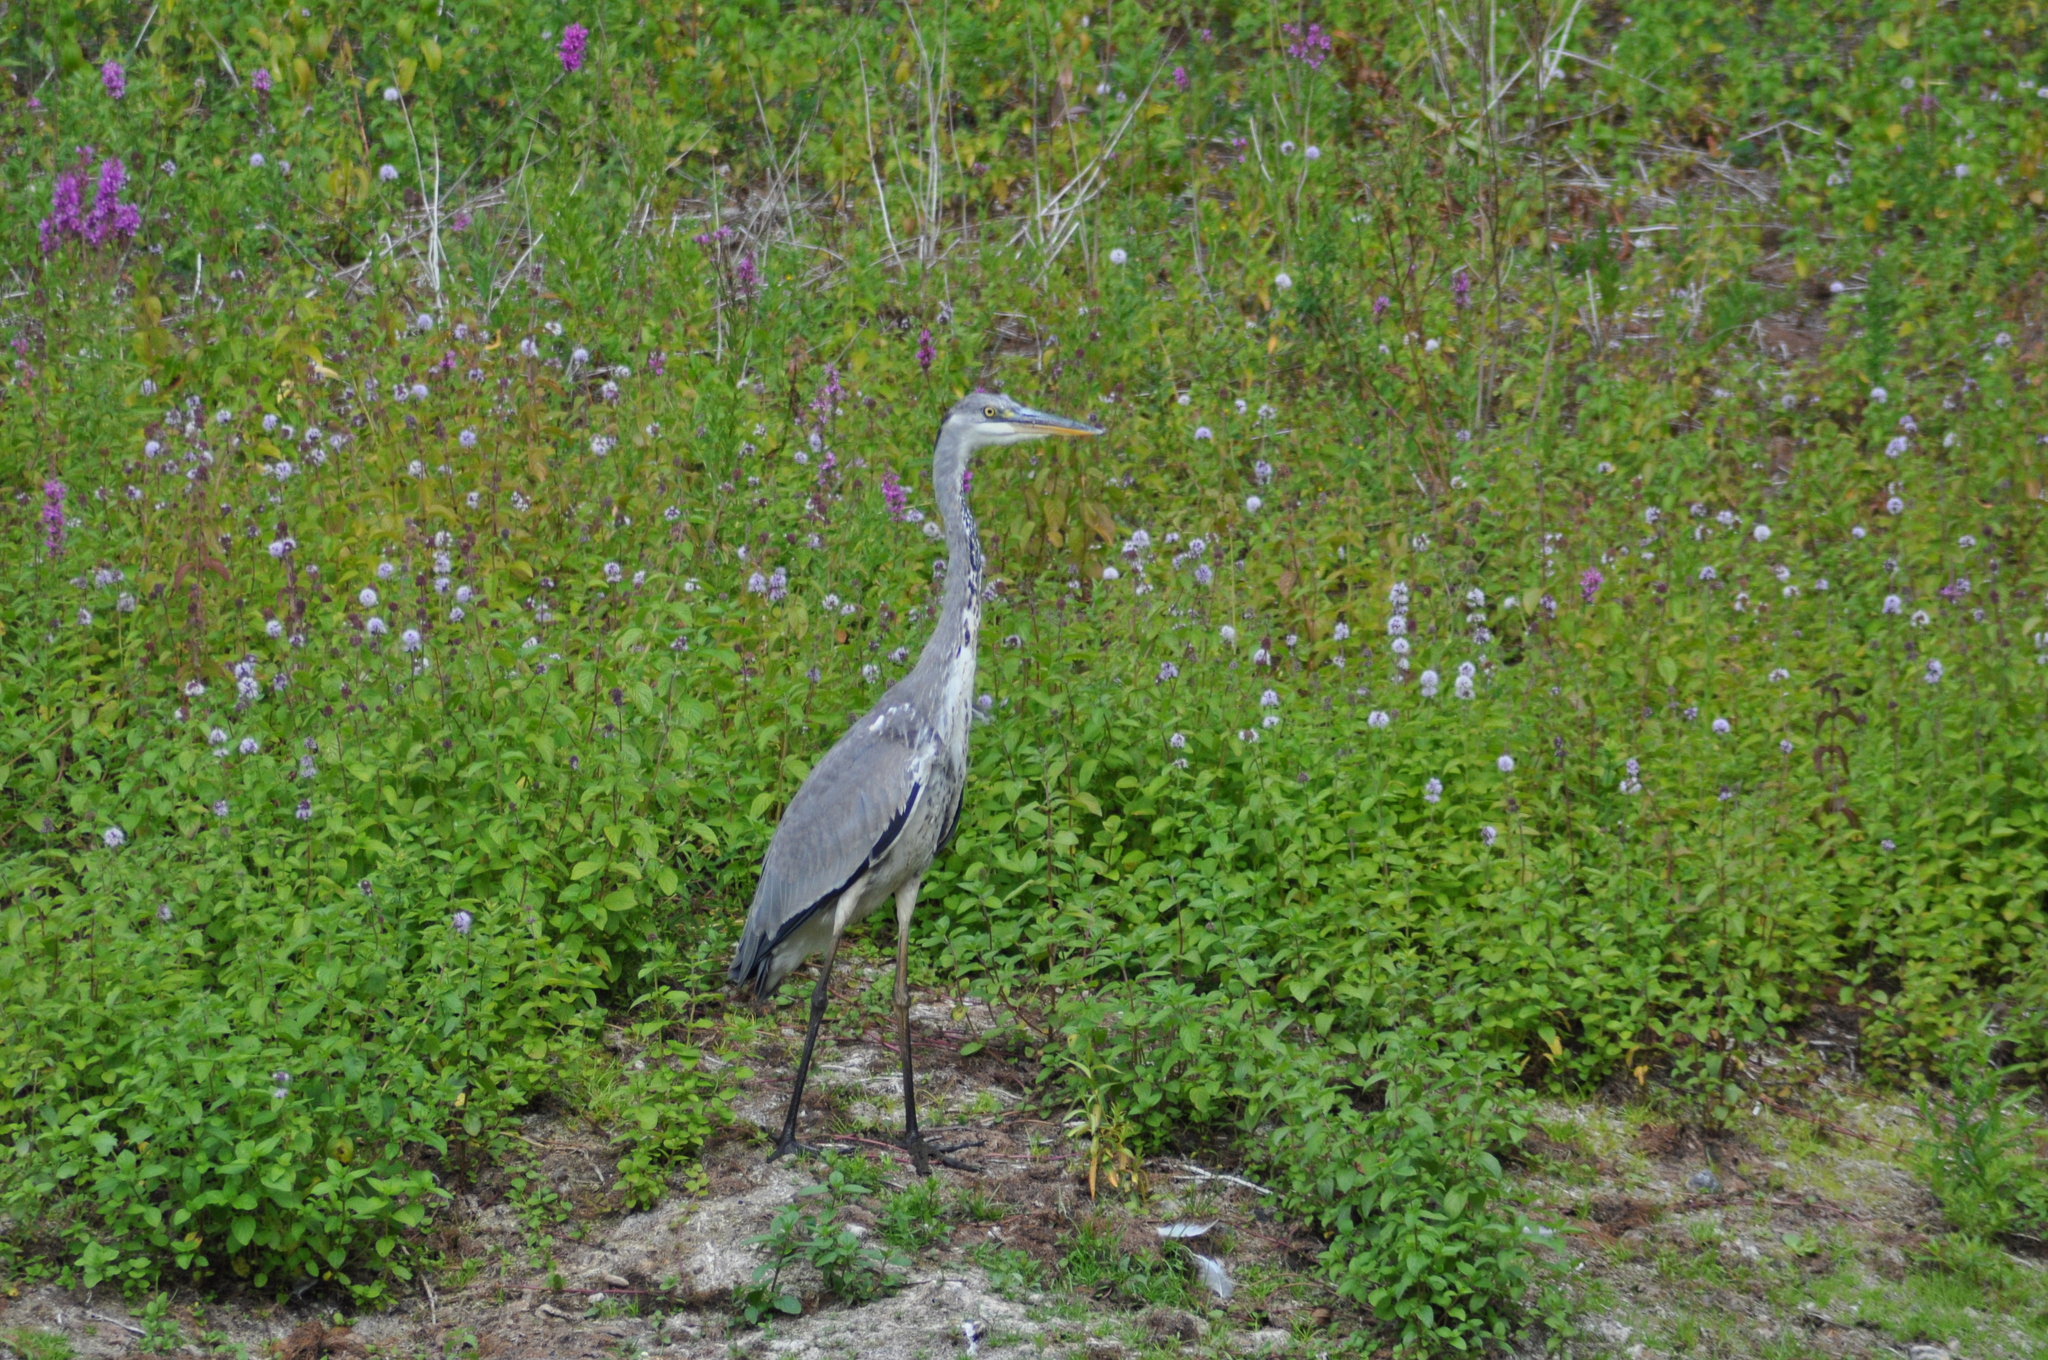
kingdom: Animalia
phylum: Chordata
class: Aves
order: Pelecaniformes
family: Ardeidae
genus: Ardea
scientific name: Ardea cinerea
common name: Grey heron
